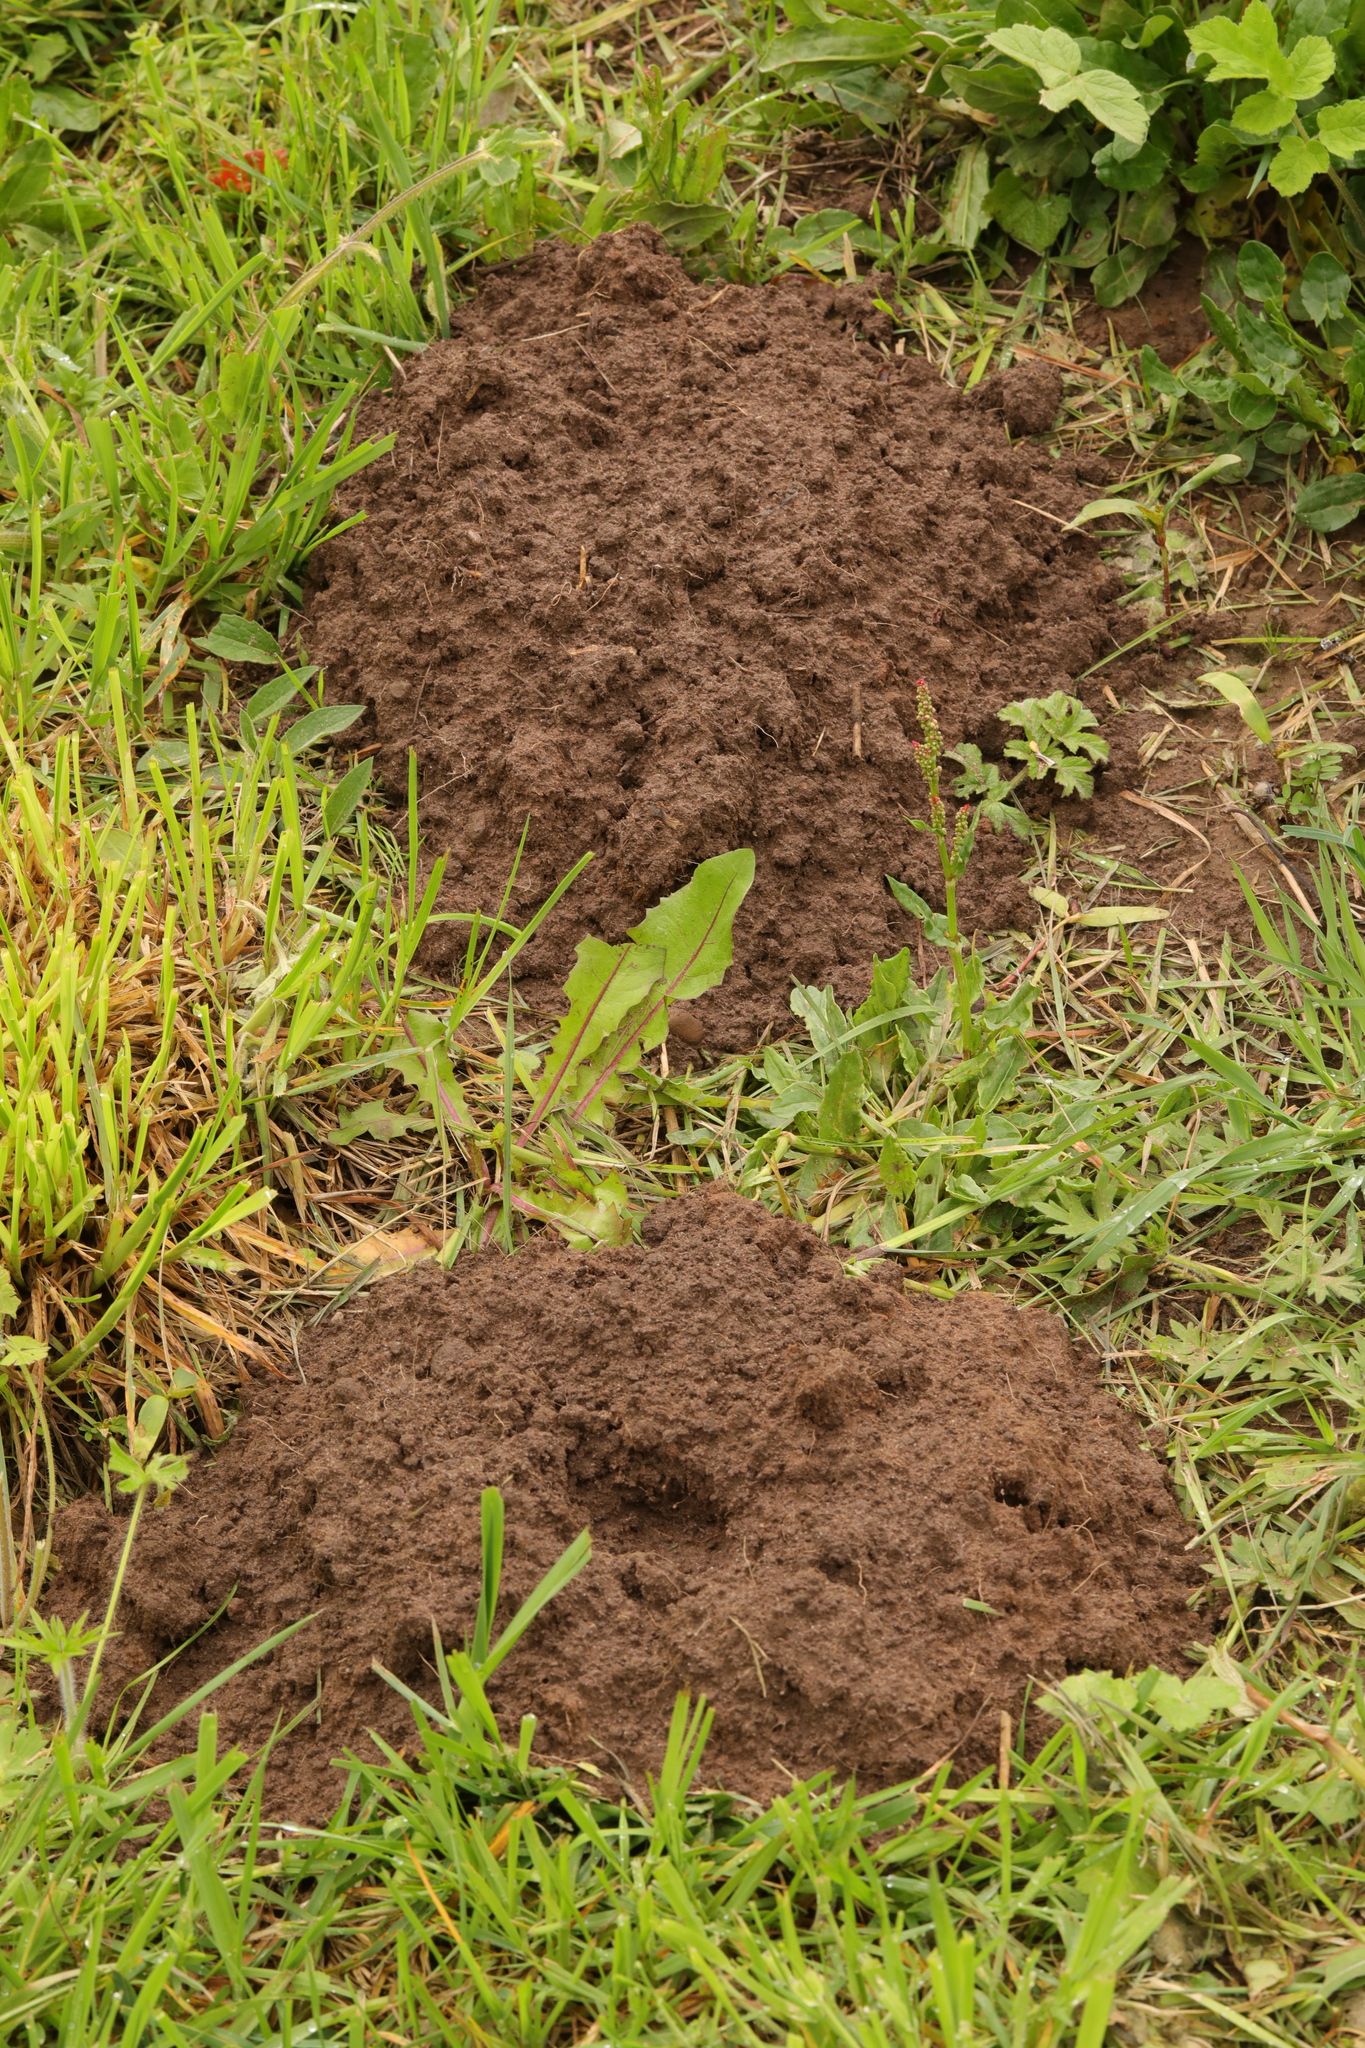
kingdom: Animalia
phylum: Chordata
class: Mammalia
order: Soricomorpha
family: Talpidae
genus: Talpa
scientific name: Talpa europaea
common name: European mole
